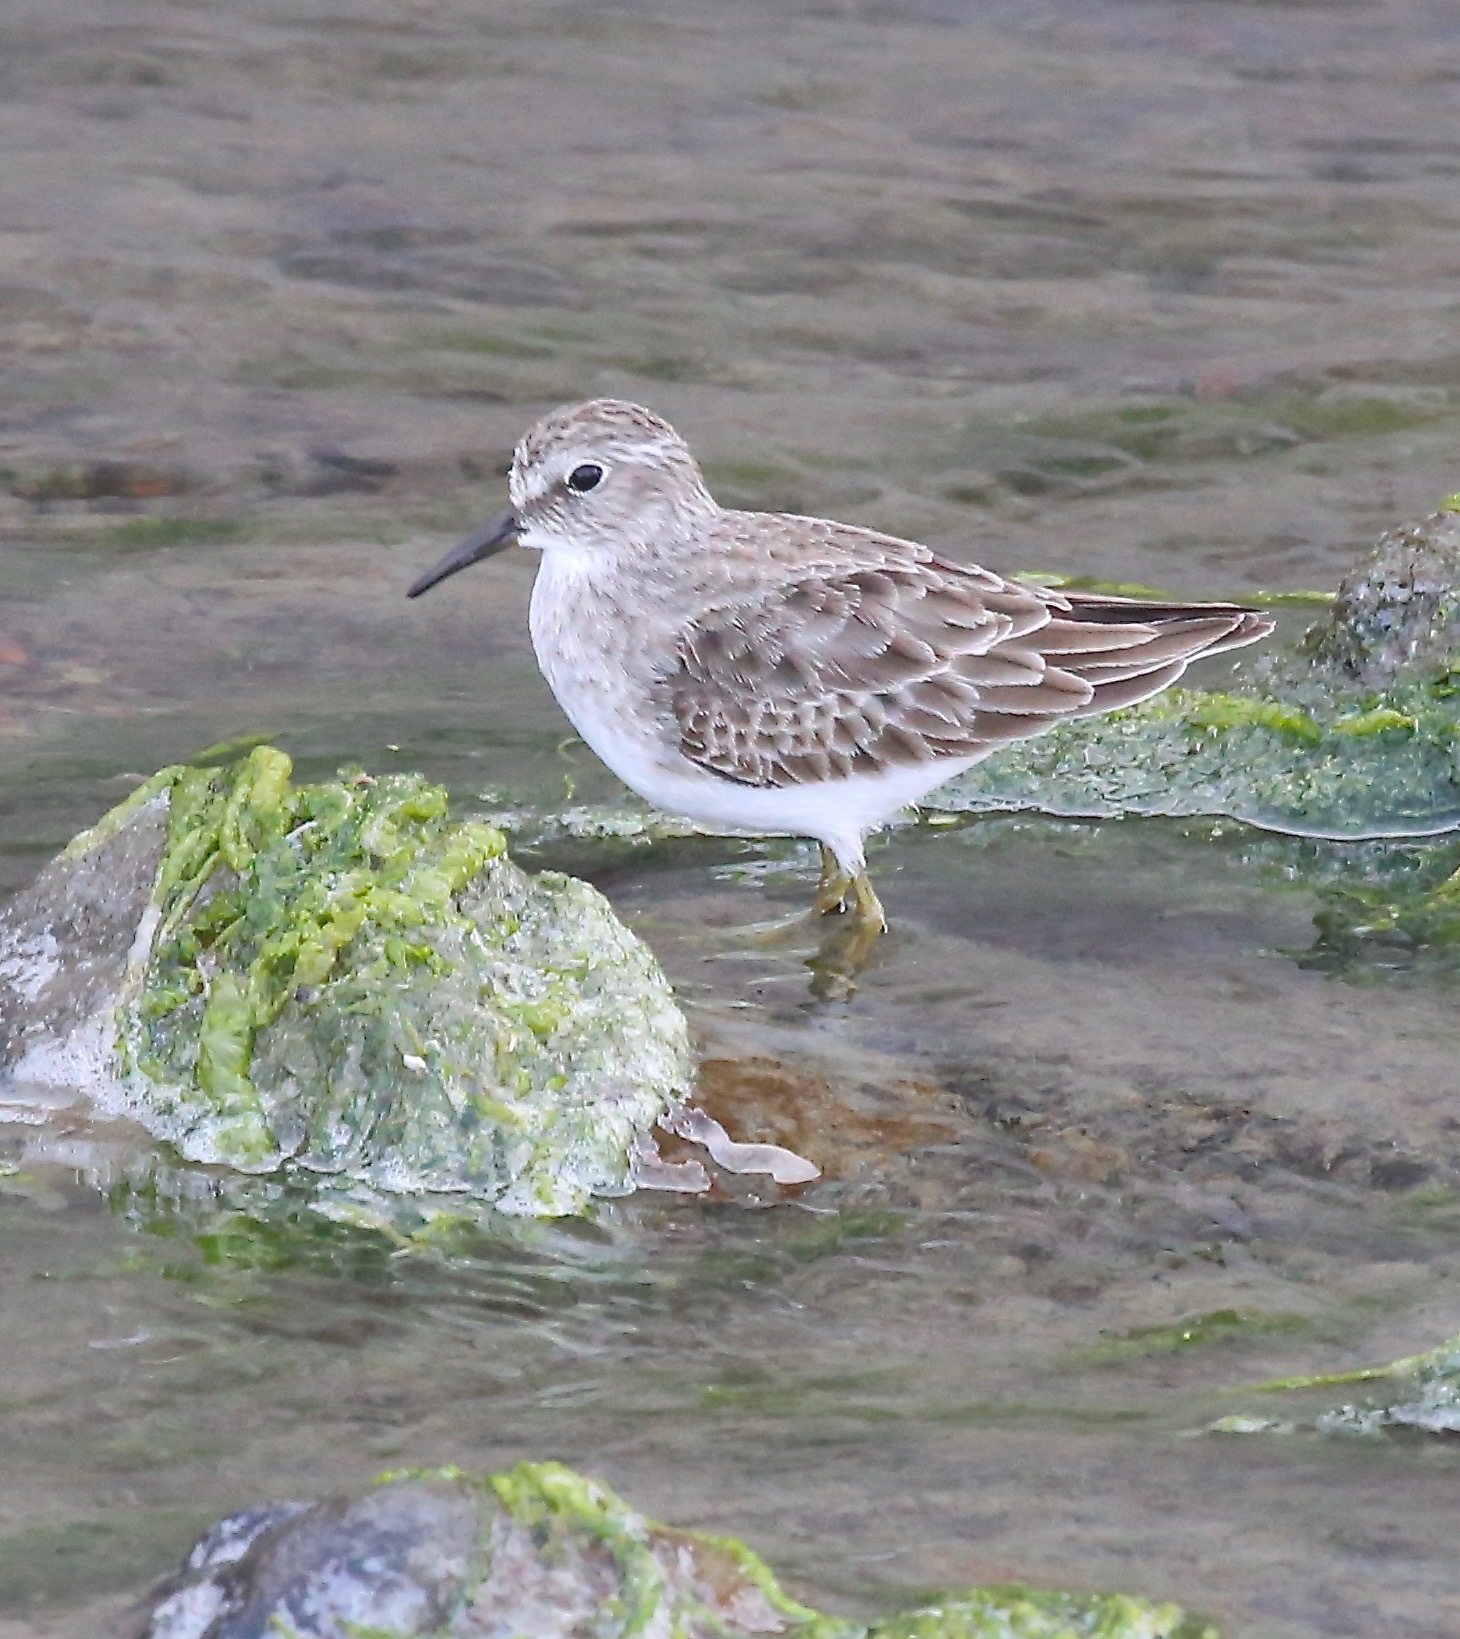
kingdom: Animalia
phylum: Chordata
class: Aves
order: Charadriiformes
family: Scolopacidae
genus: Calidris
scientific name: Calidris minutilla
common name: Least sandpiper
